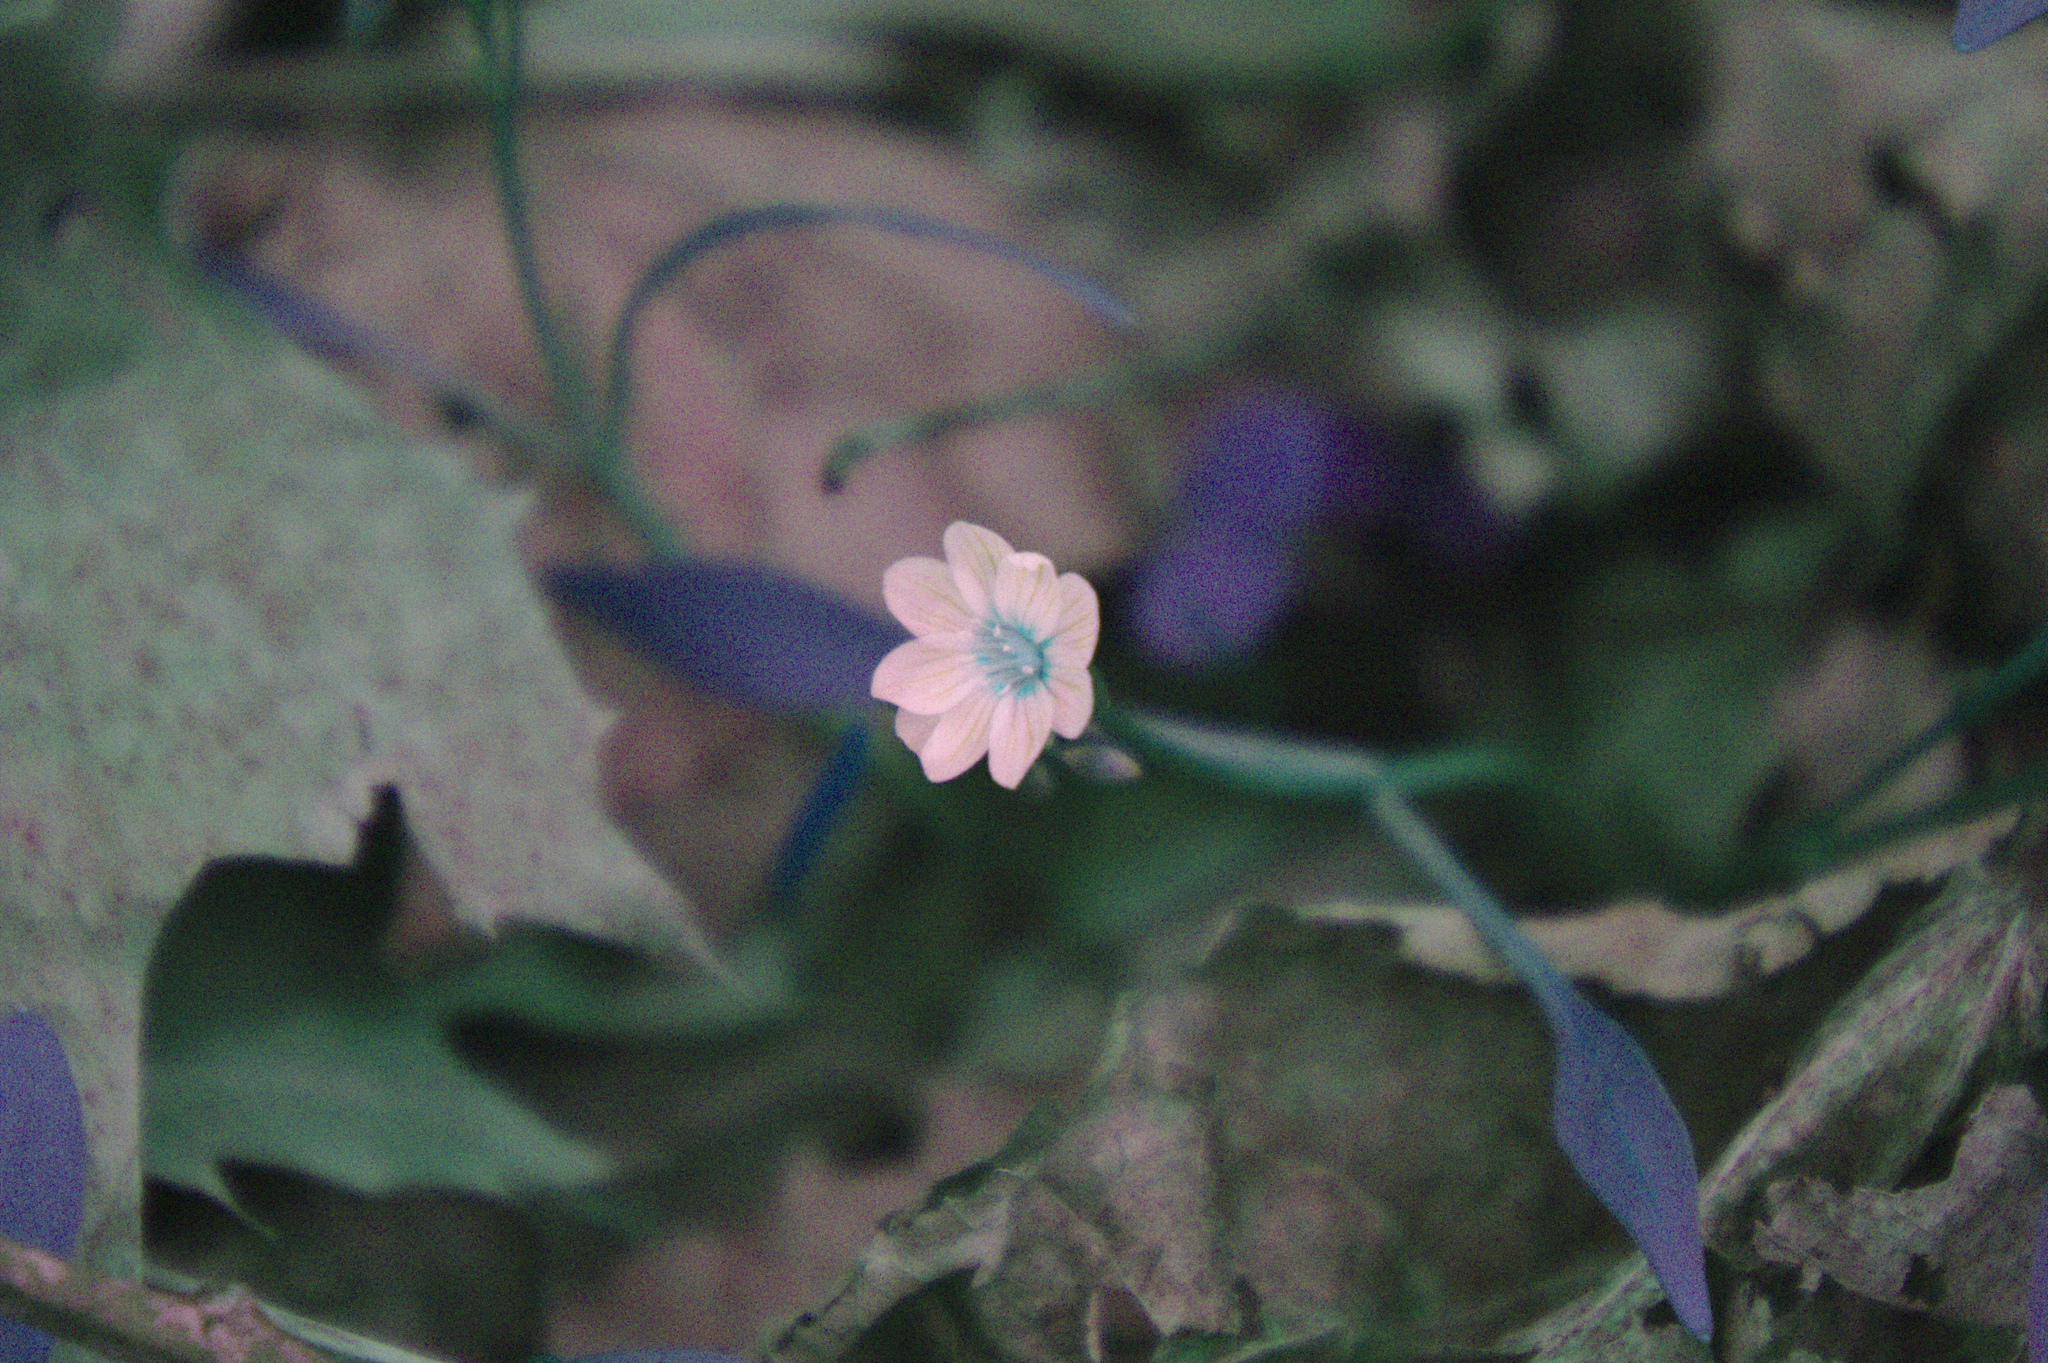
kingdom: Plantae
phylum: Tracheophyta
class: Magnoliopsida
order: Caryophyllales
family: Montiaceae
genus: Claytonia
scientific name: Claytonia caroliniana
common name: Carolina spring beauty
